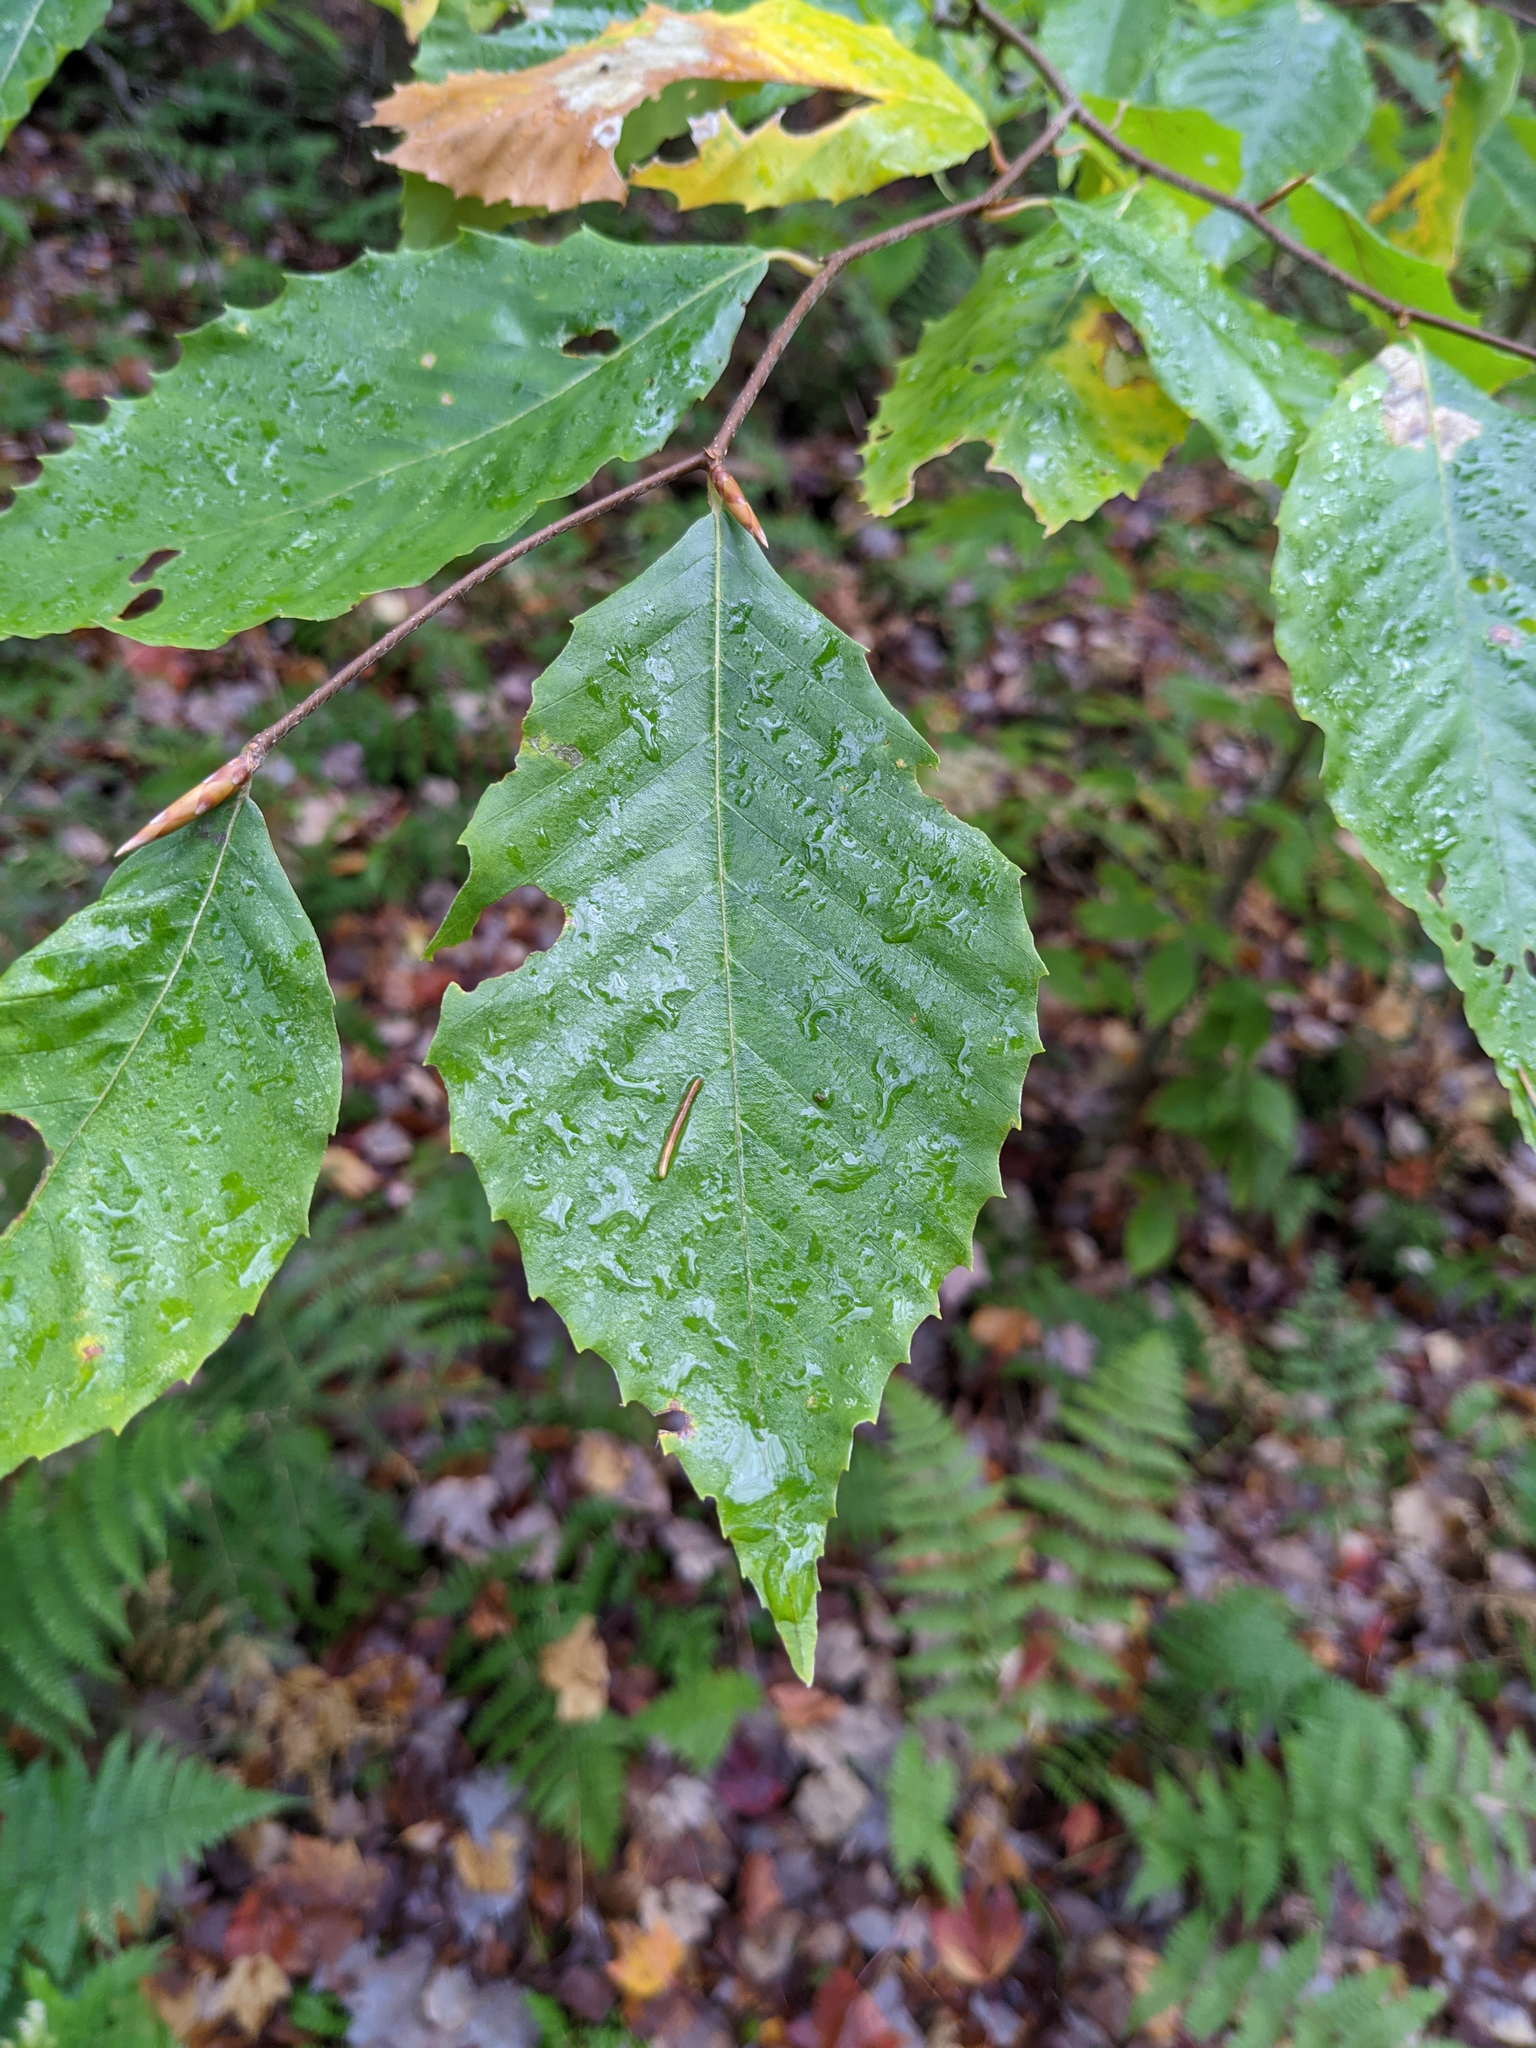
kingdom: Plantae
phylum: Tracheophyta
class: Magnoliopsida
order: Fagales
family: Fagaceae
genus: Fagus
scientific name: Fagus grandifolia
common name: American beech
